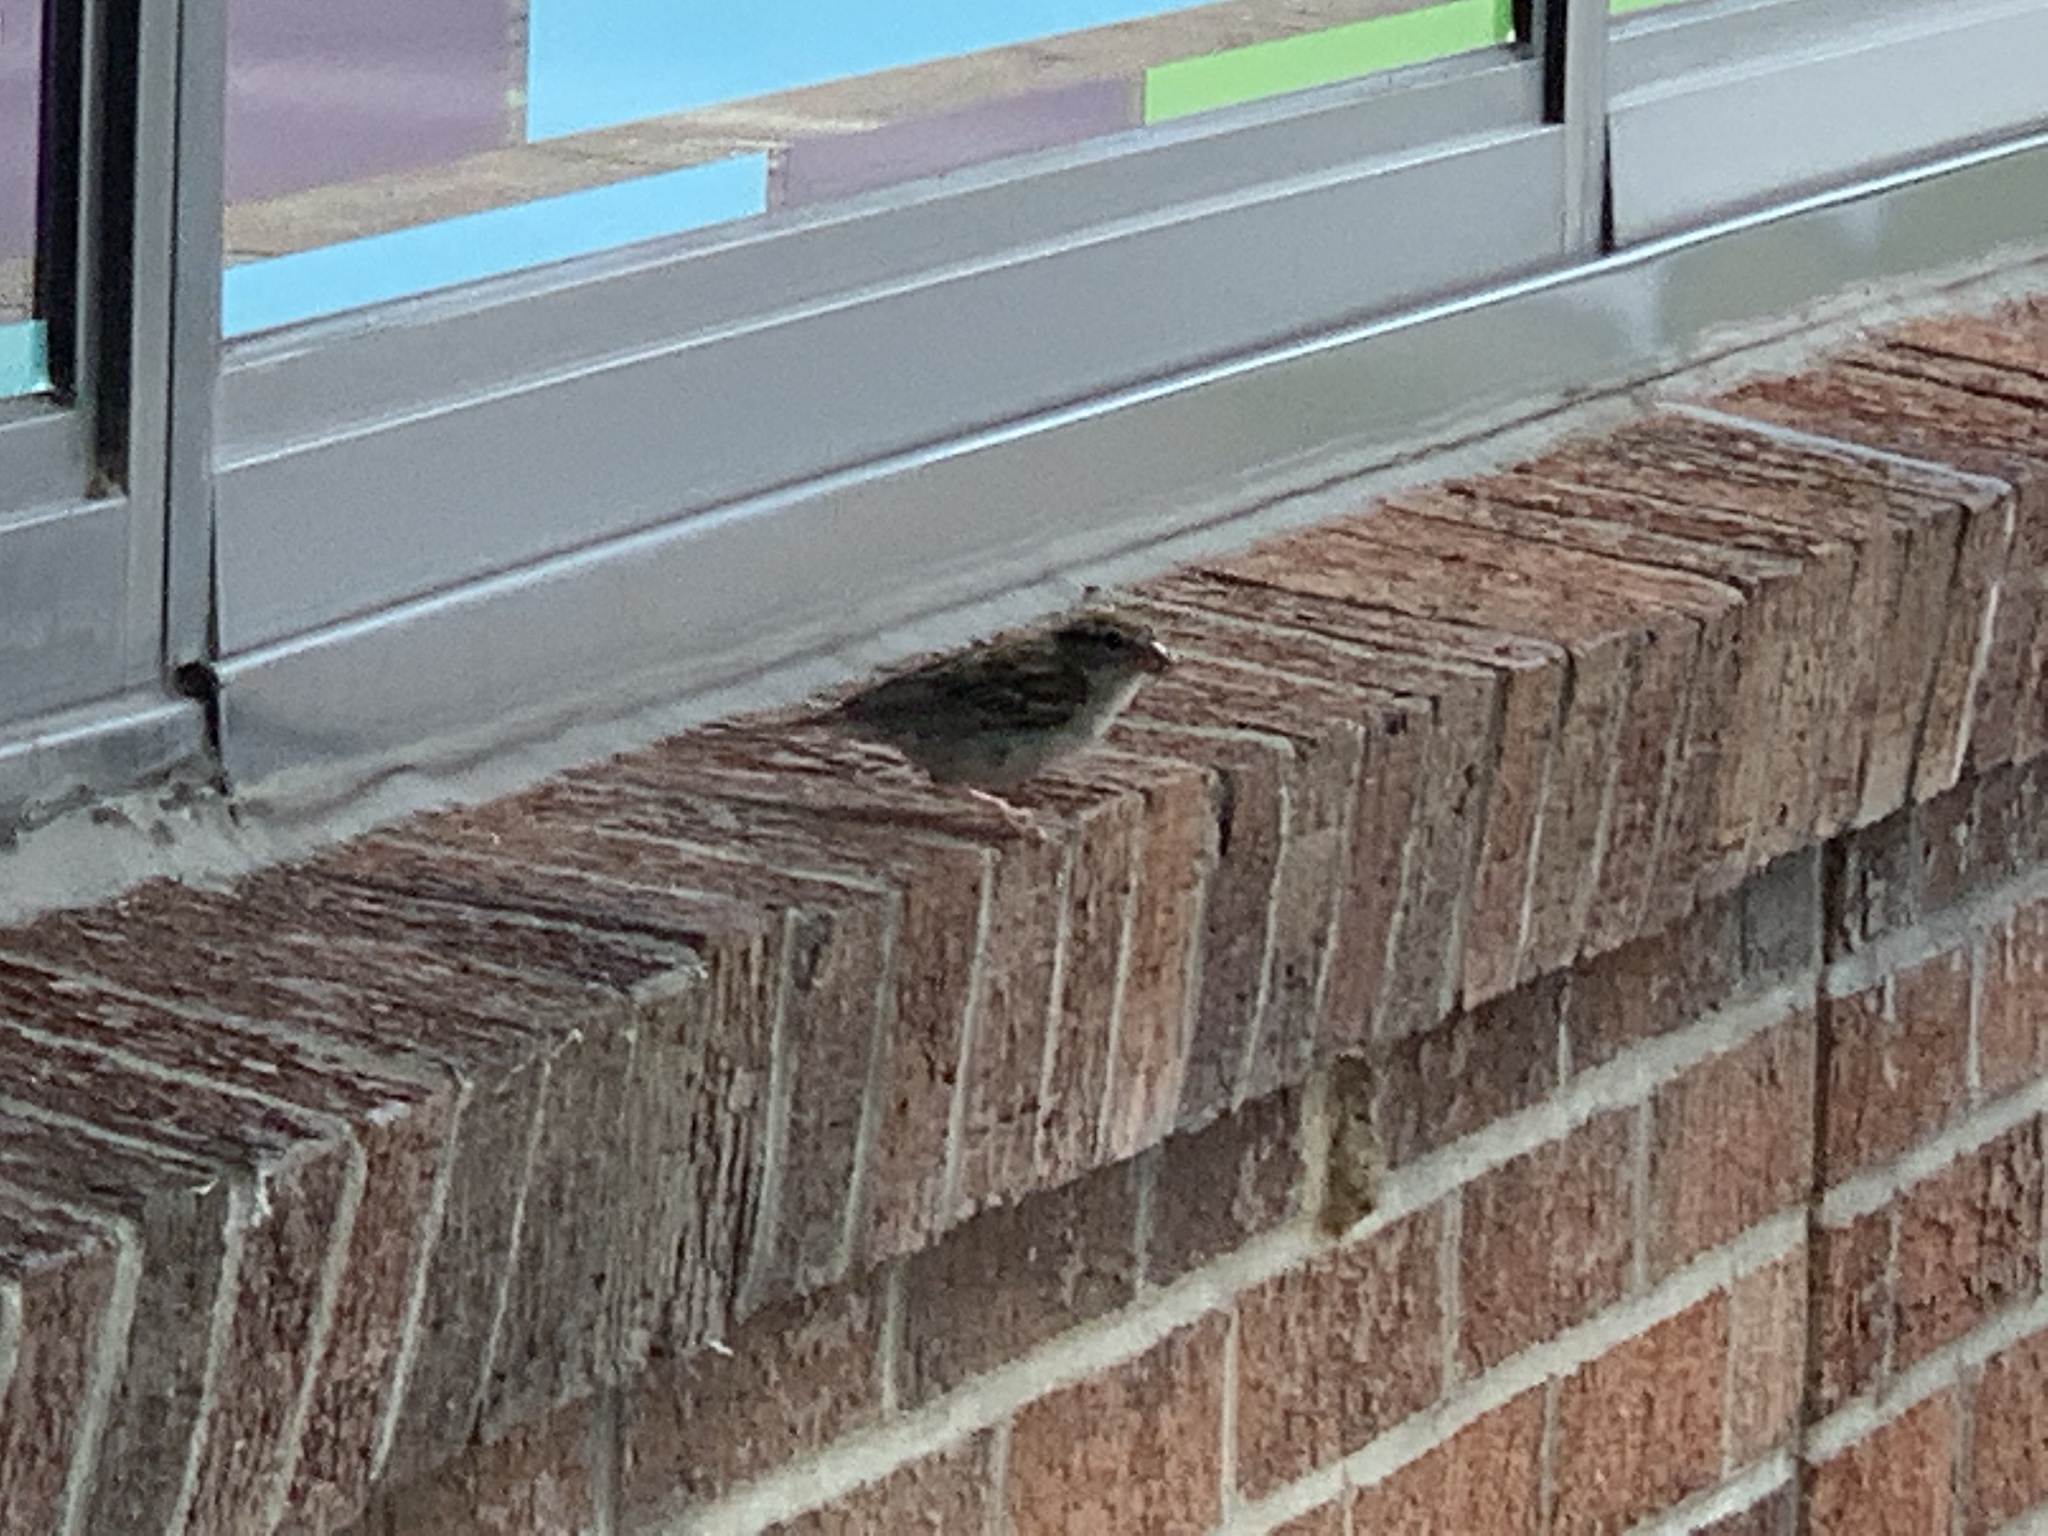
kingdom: Animalia
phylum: Chordata
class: Aves
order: Passeriformes
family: Passerellidae
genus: Spizella
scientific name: Spizella passerina
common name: Chipping sparrow
